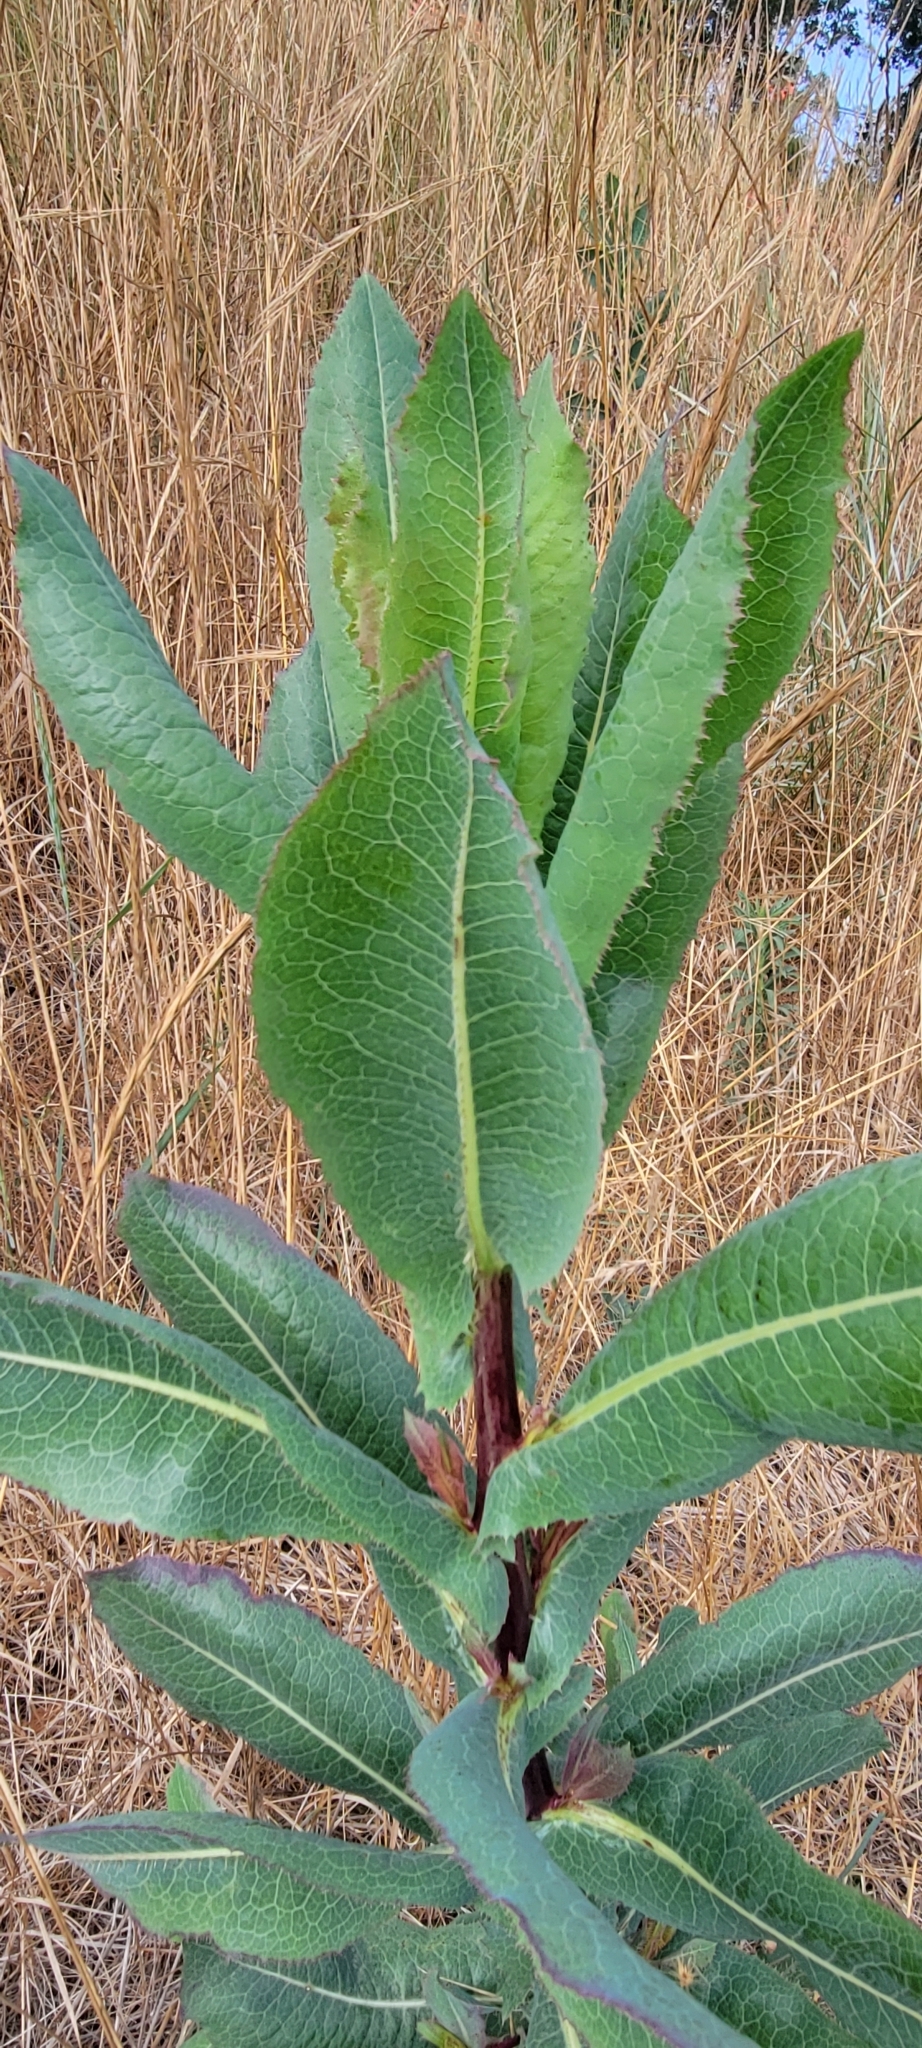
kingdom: Plantae
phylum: Tracheophyta
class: Magnoliopsida
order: Asterales
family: Asteraceae
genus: Lactuca
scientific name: Lactuca virosa
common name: Great lettuce
